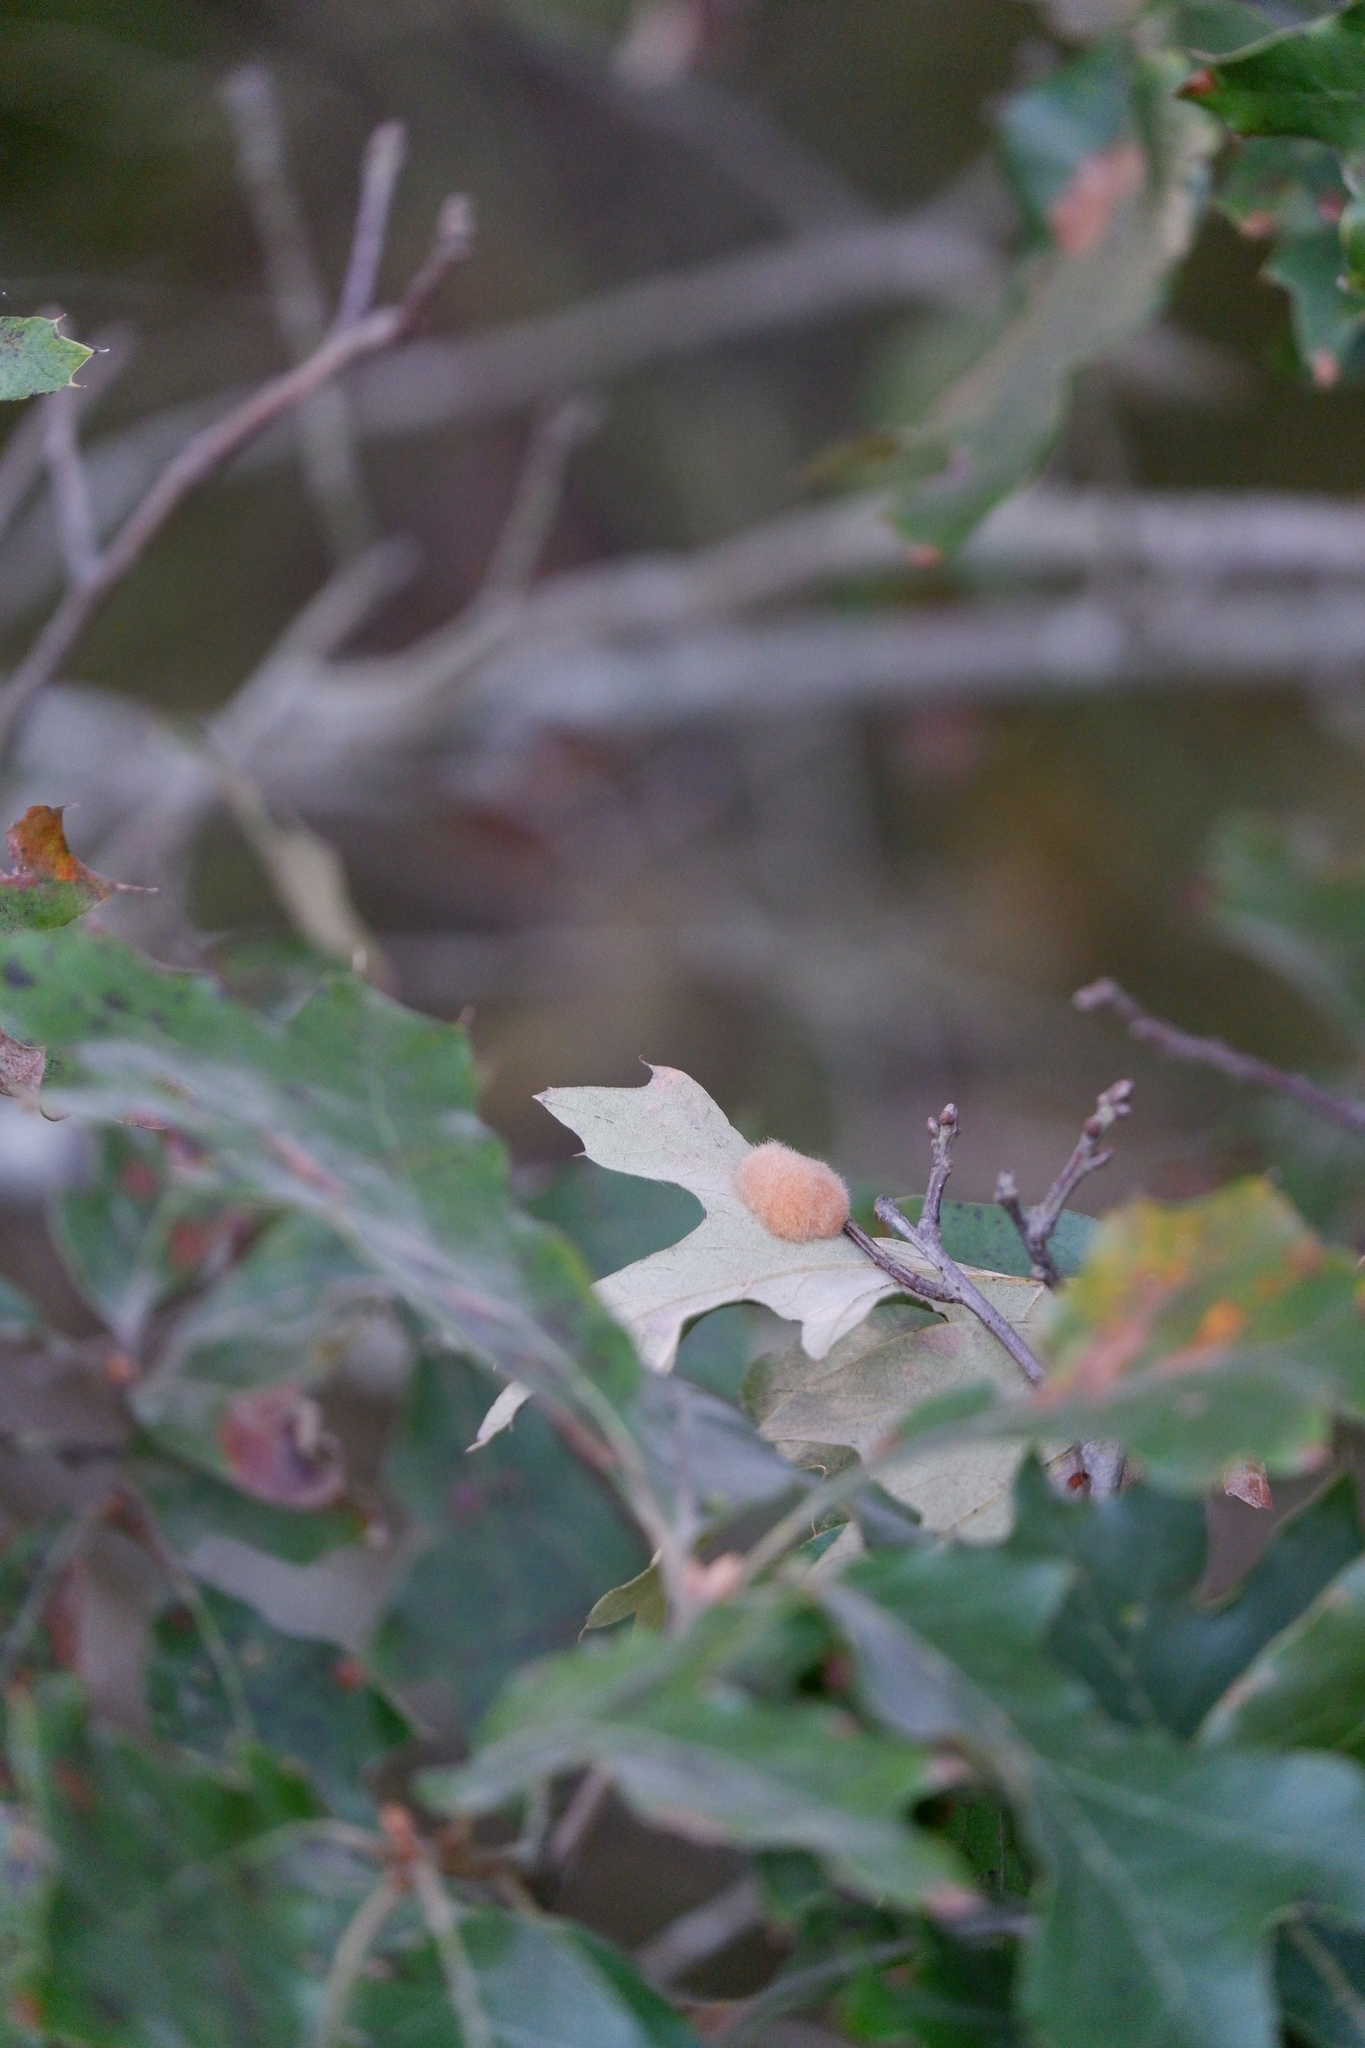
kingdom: Animalia
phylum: Arthropoda
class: Insecta
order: Hymenoptera
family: Cynipidae
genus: Callirhytis
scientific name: Callirhytis
